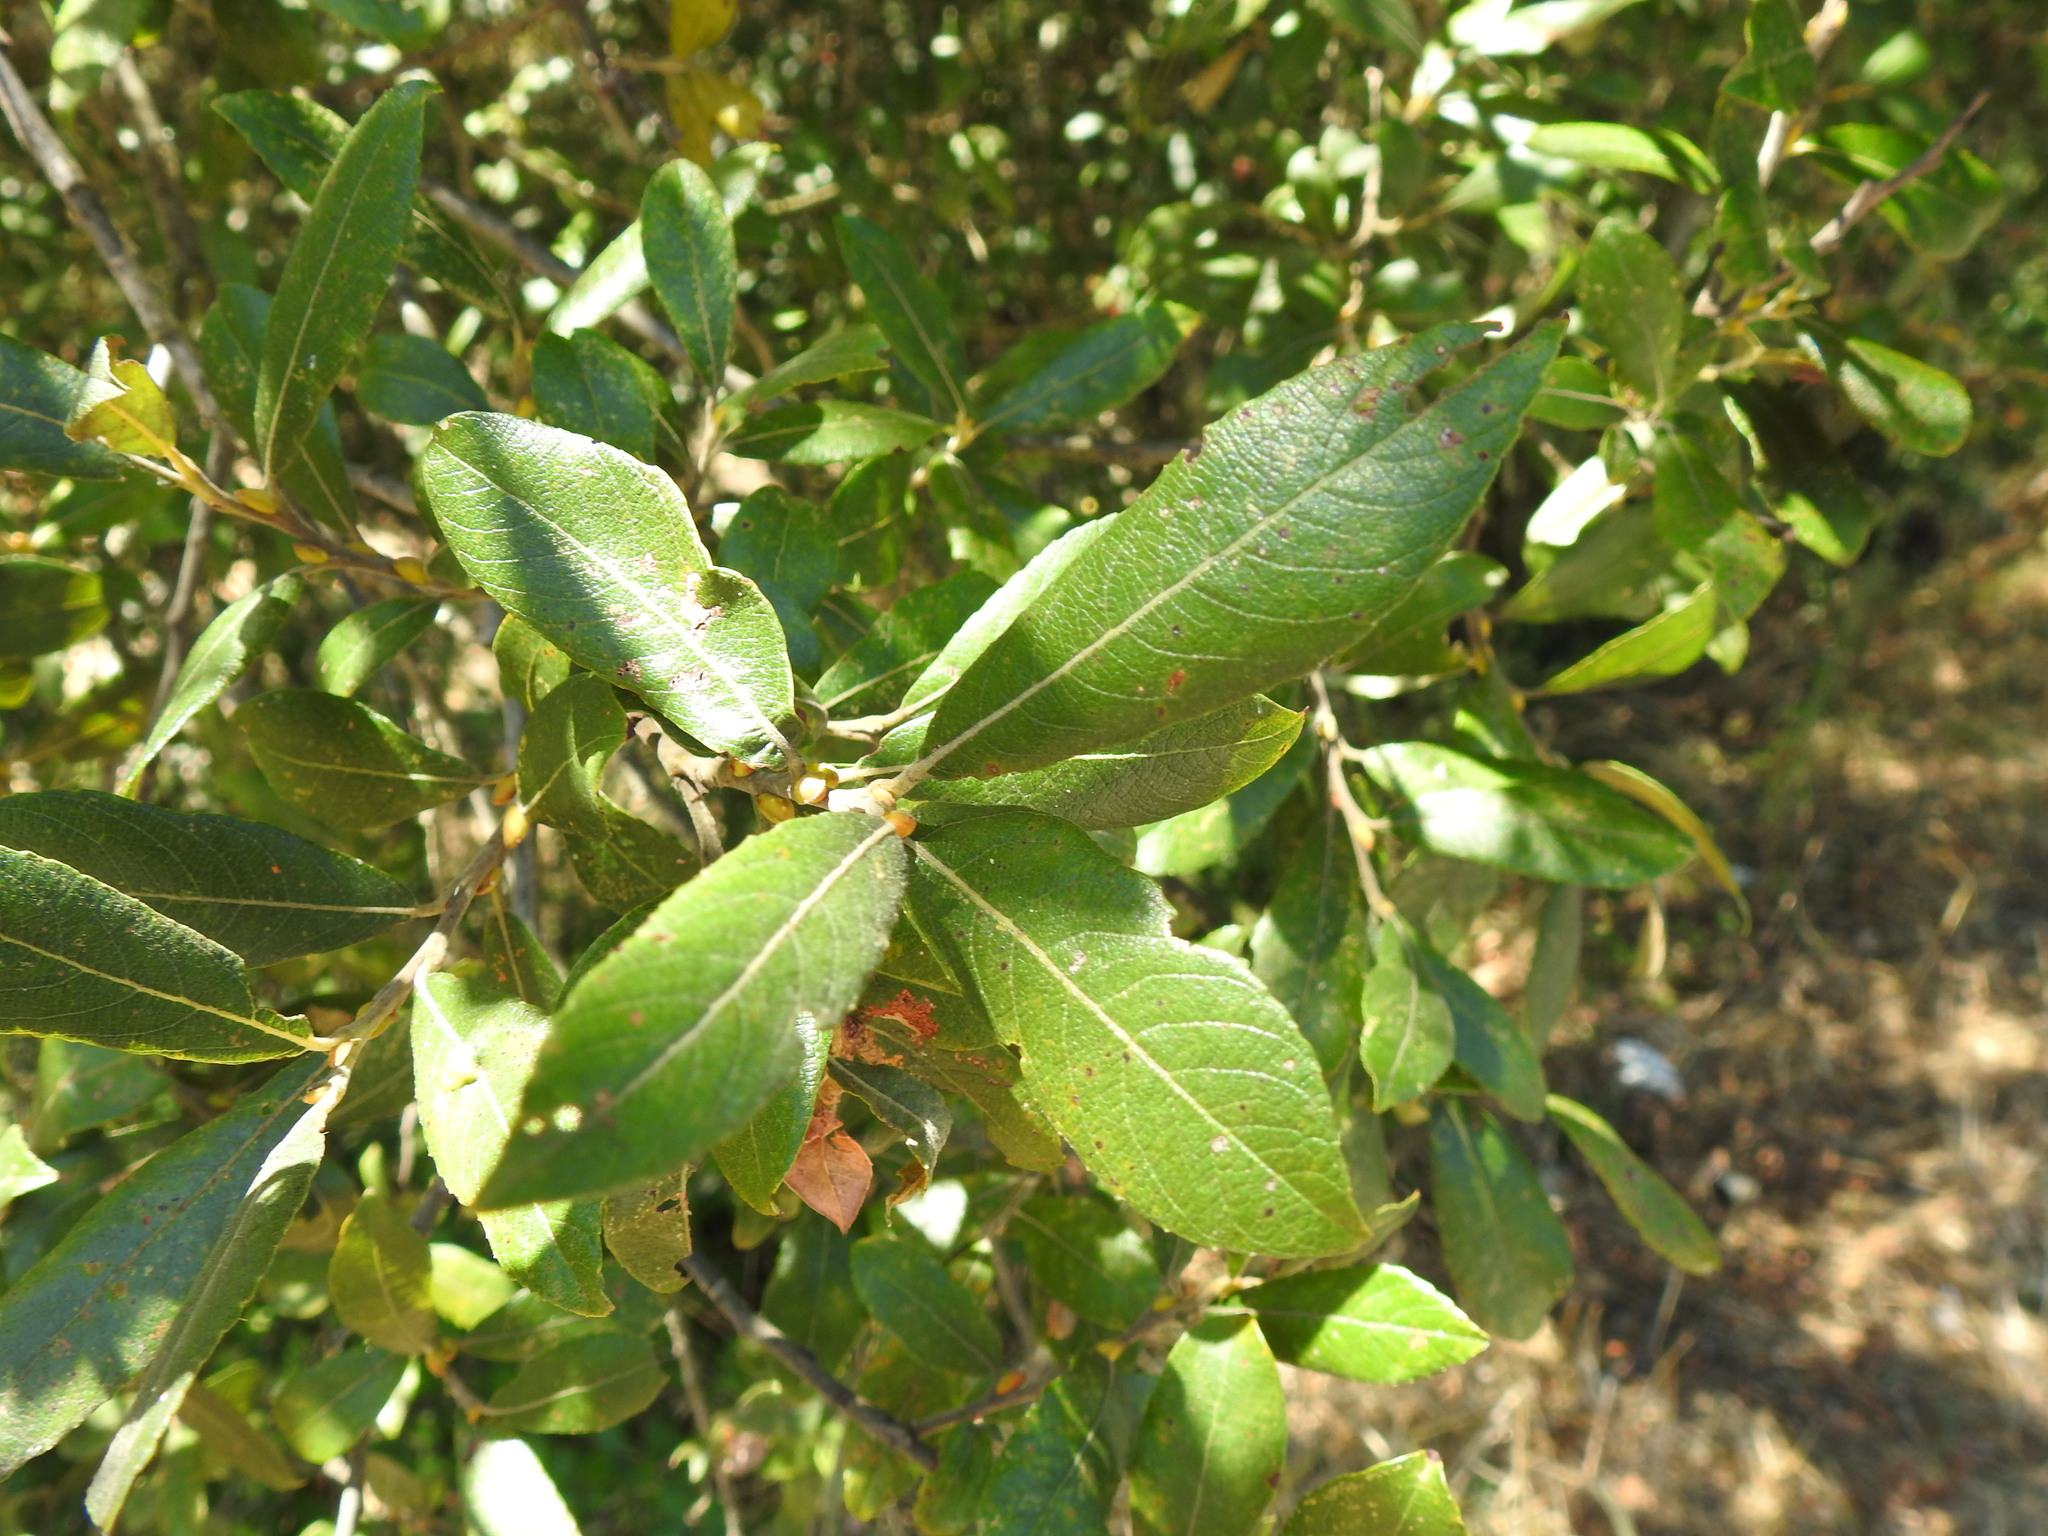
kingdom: Plantae
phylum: Tracheophyta
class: Magnoliopsida
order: Malpighiales
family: Salicaceae
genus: Salix
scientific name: Salix atrocinerea
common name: Rusty willow
